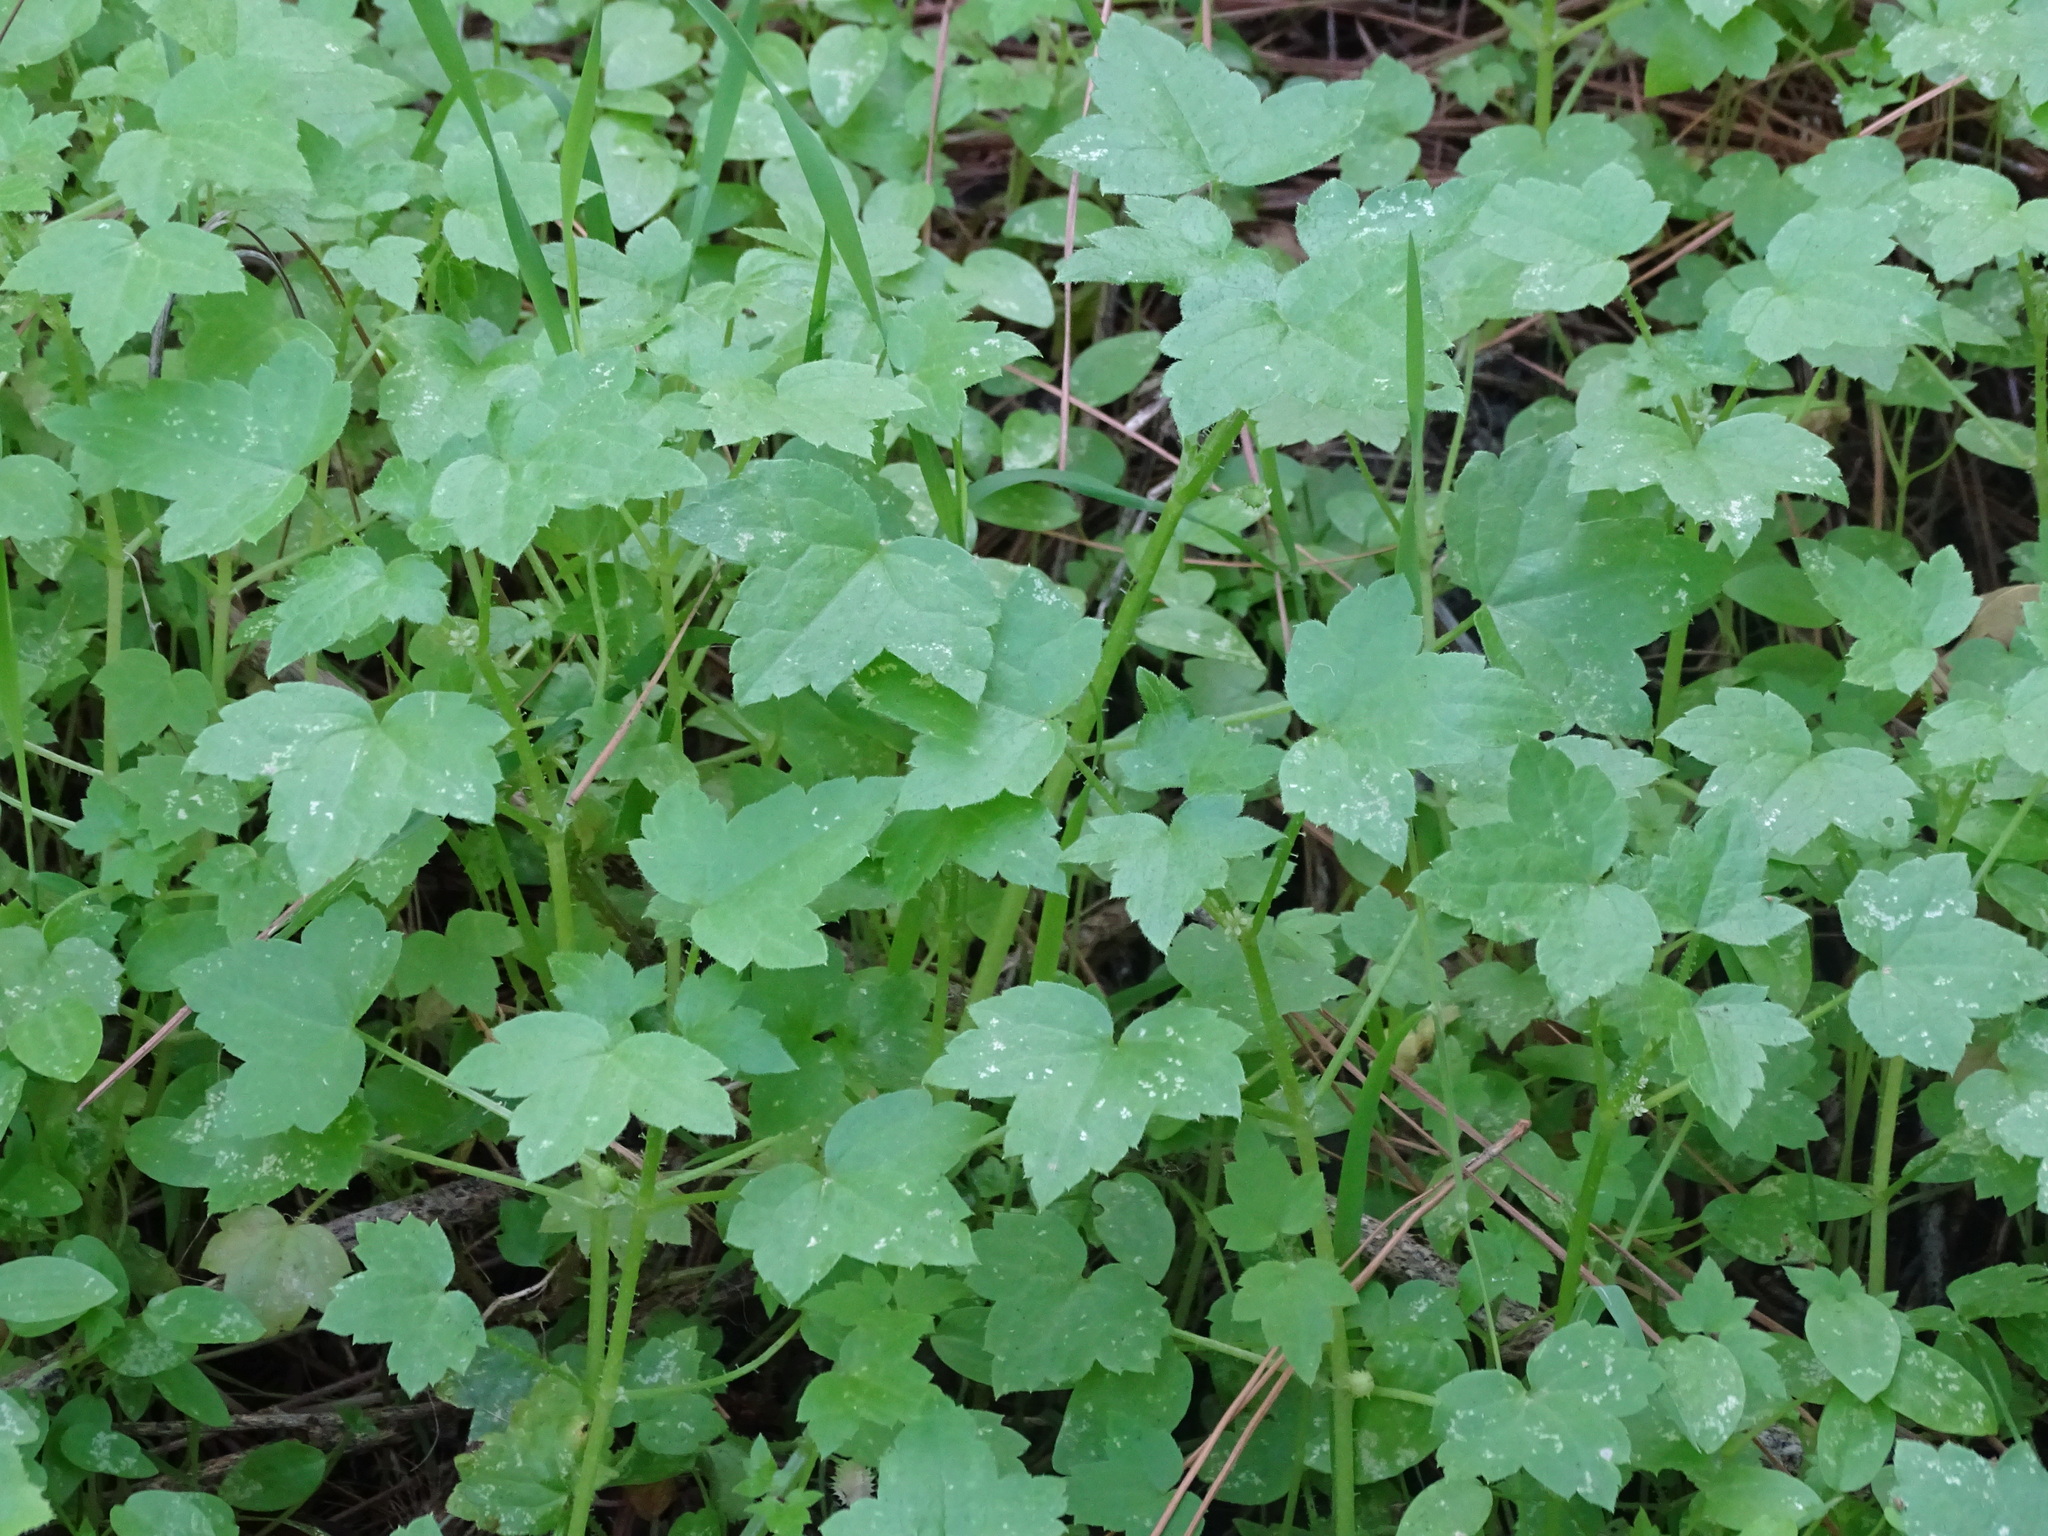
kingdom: Plantae
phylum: Tracheophyta
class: Magnoliopsida
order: Apiales
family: Apiaceae
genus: Drusa
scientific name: Drusa glandulosa
